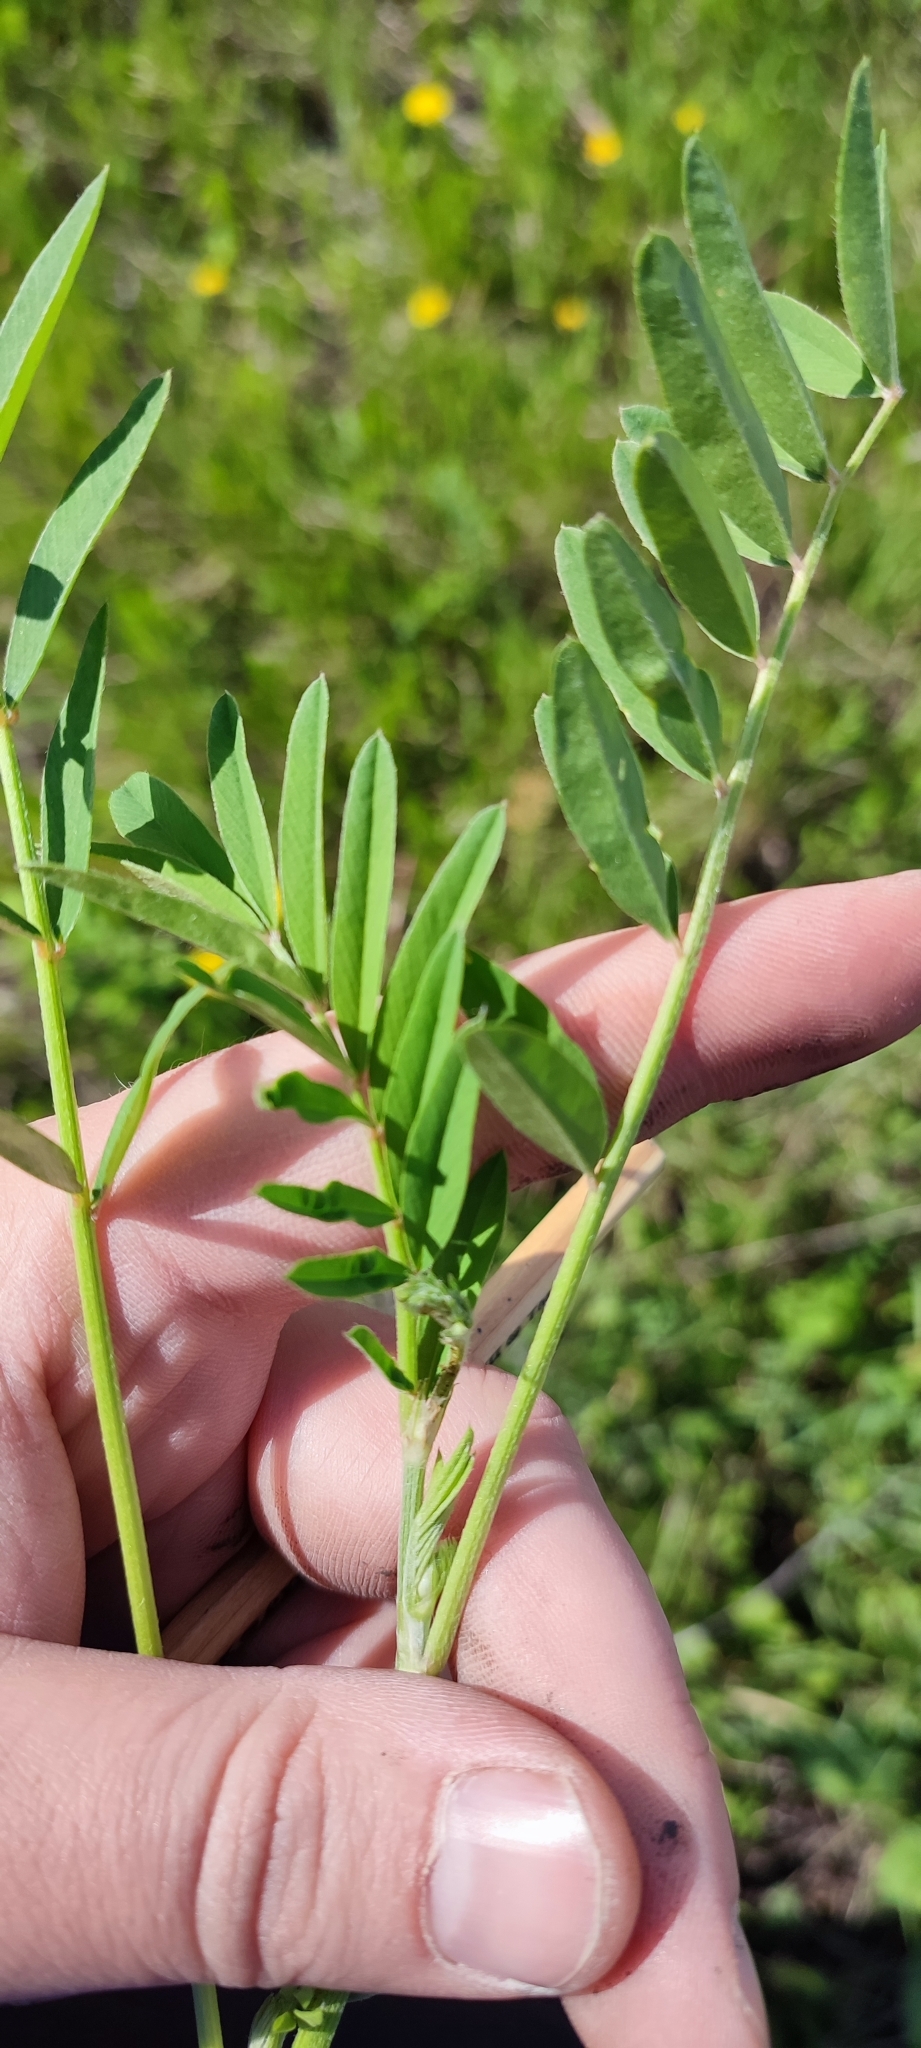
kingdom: Plantae
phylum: Tracheophyta
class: Magnoliopsida
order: Fabales
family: Fabaceae
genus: Onobrychis
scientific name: Onobrychis arenaria
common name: Sand esparcet
